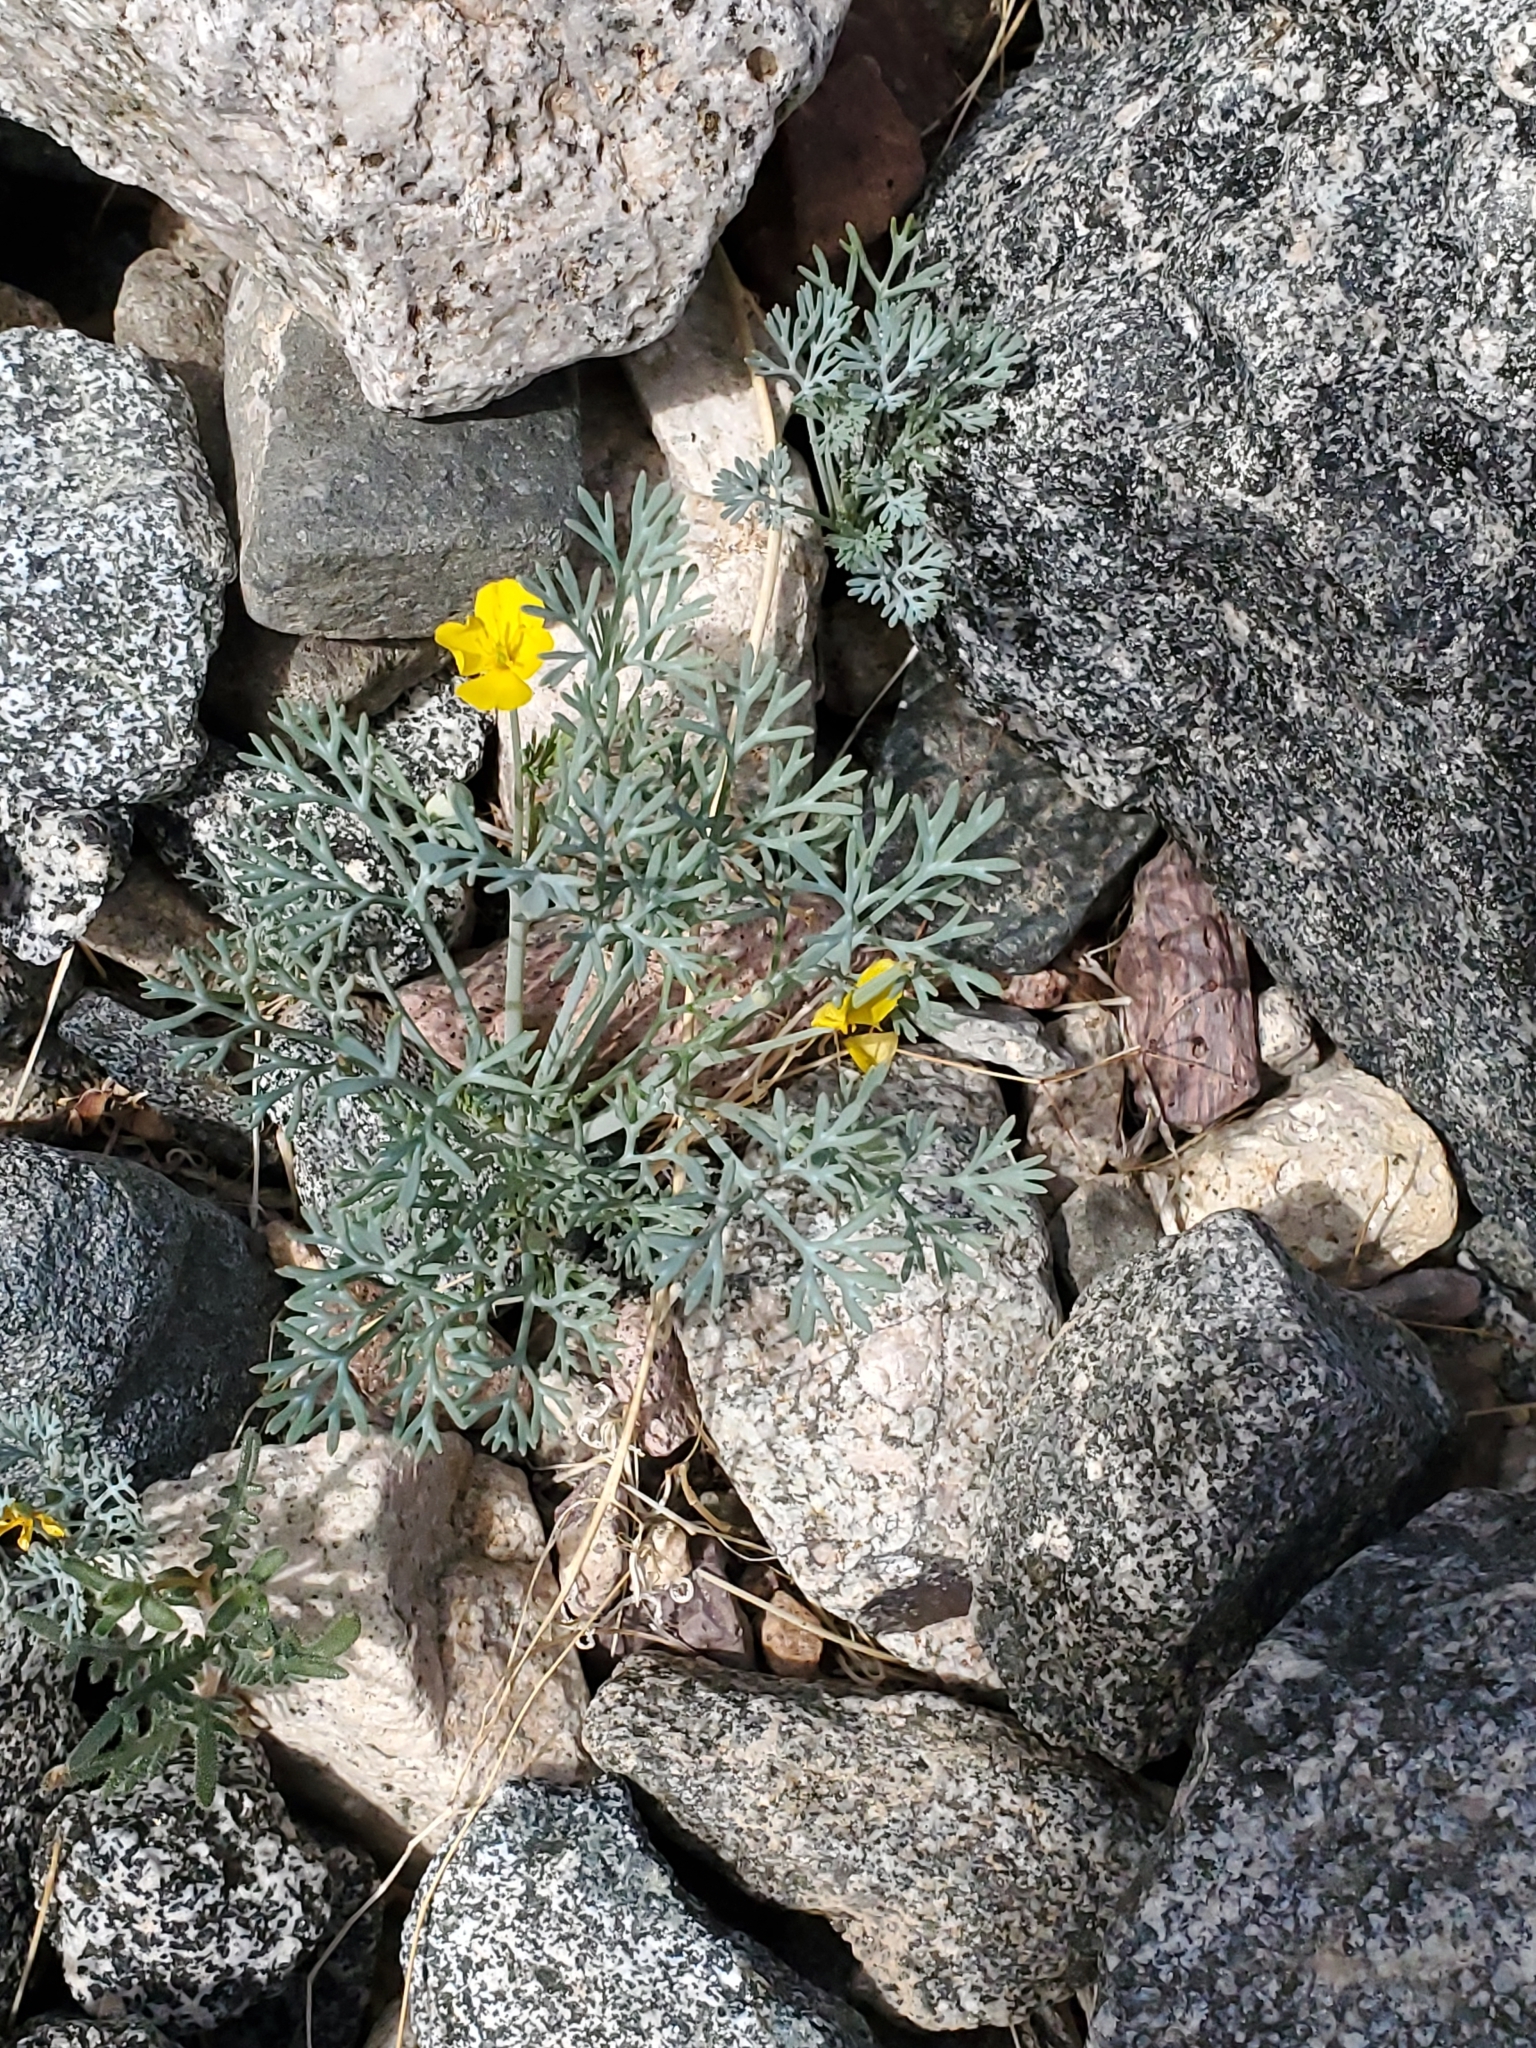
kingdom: Plantae
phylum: Tracheophyta
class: Magnoliopsida
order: Ranunculales
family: Papaveraceae
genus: Eschscholzia
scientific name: Eschscholzia minutiflora
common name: Small-flower california-poppy
